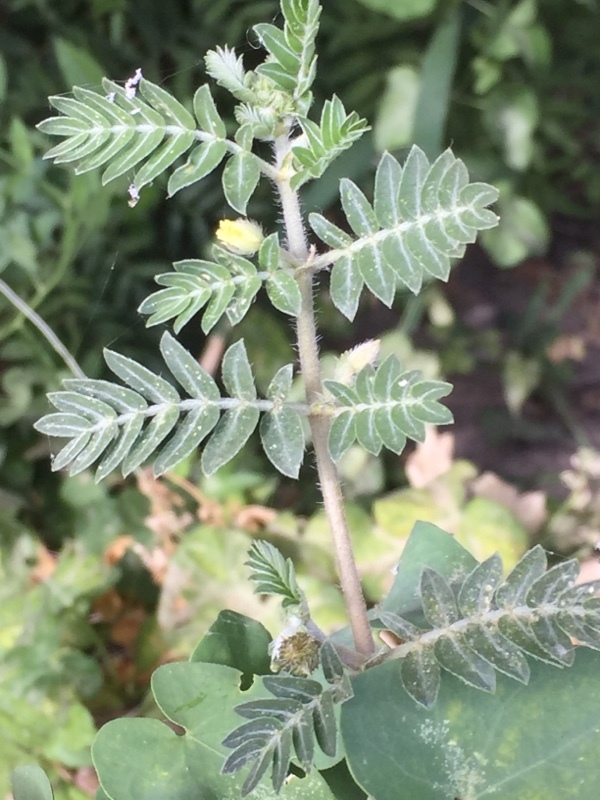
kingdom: Plantae
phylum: Tracheophyta
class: Magnoliopsida
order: Zygophyllales
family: Zygophyllaceae
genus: Tribulus
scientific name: Tribulus terrestris
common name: Puncturevine
